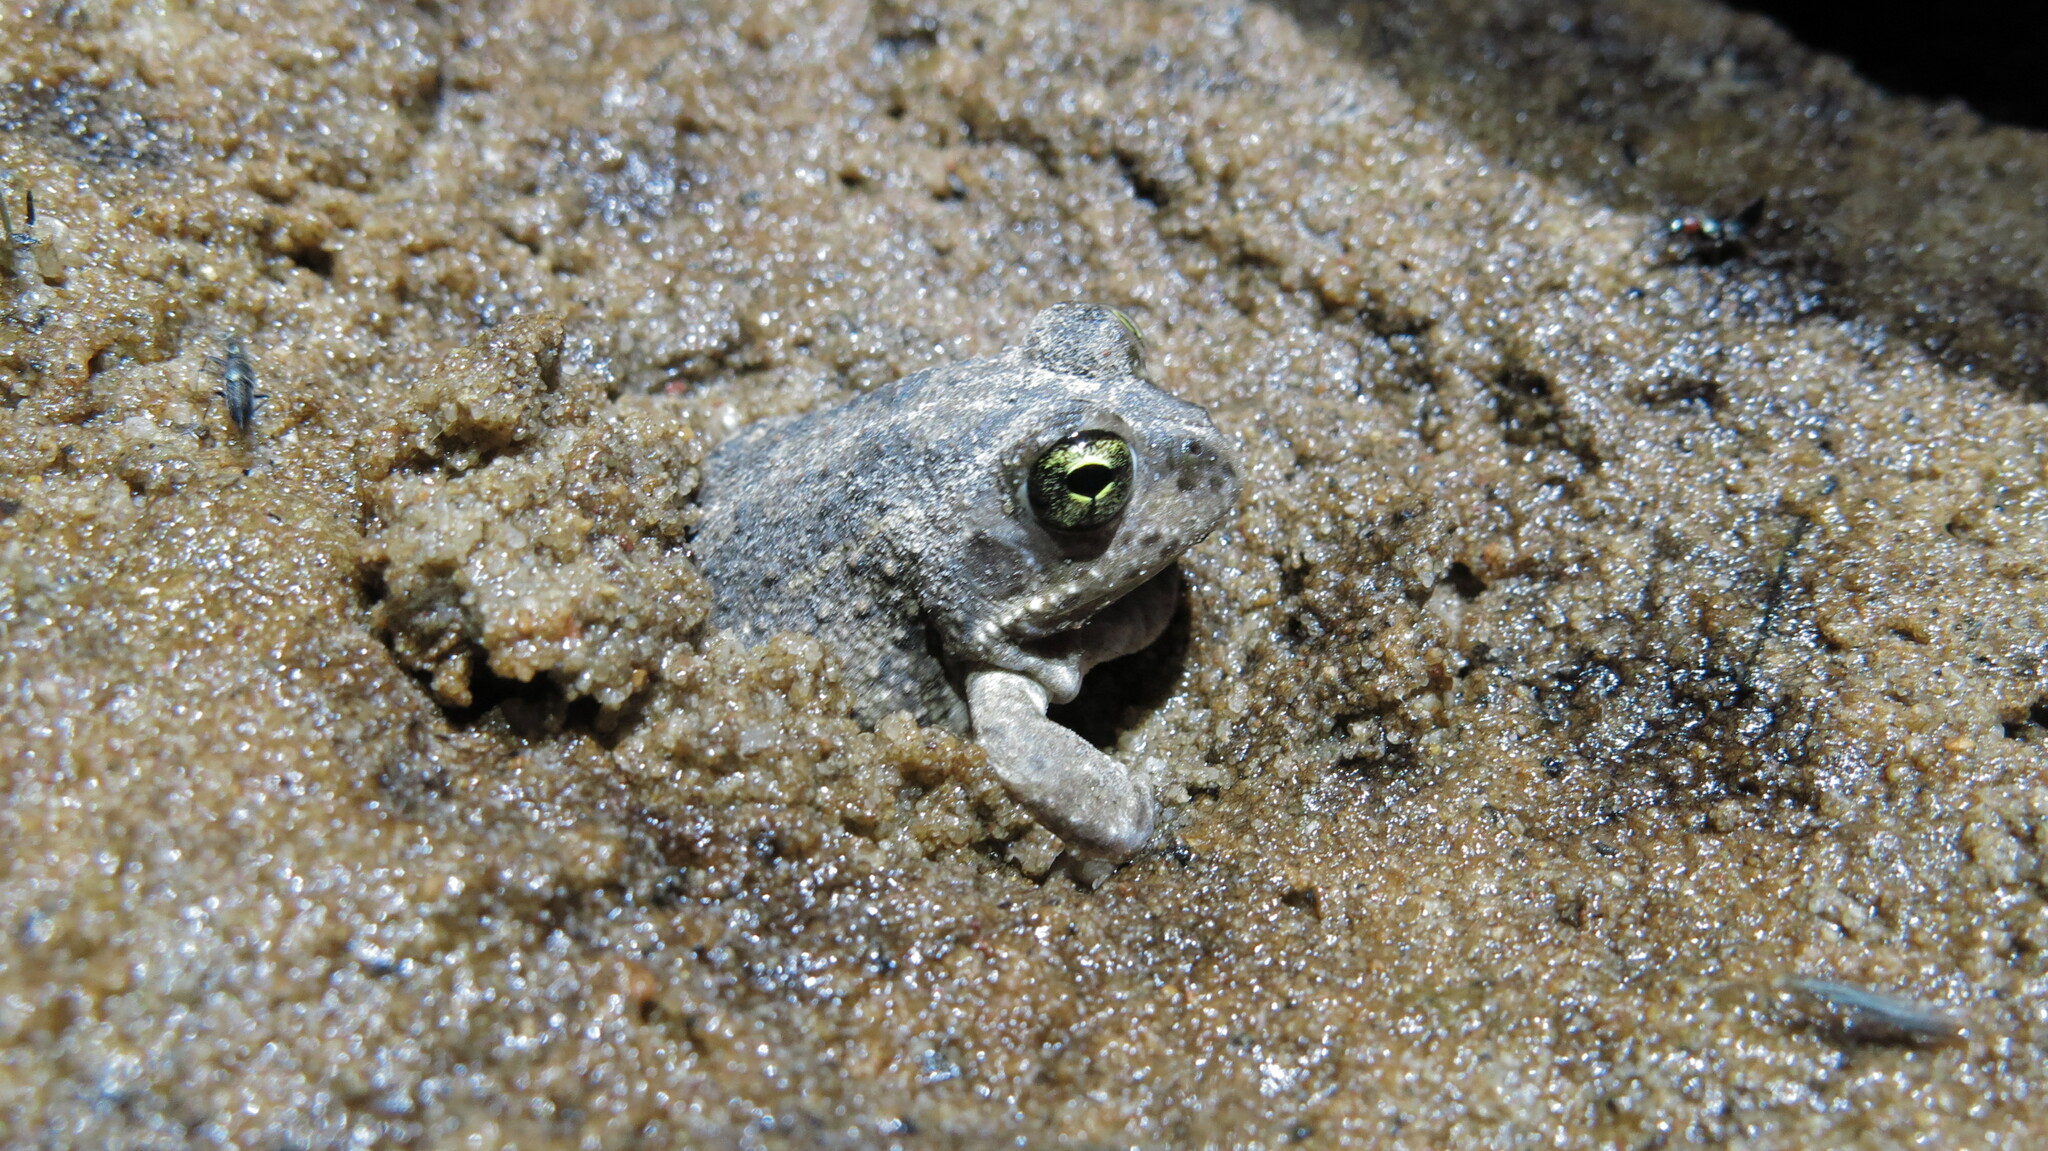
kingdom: Animalia
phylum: Chordata
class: Amphibia
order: Anura
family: Pyxicephalidae
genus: Tomopterna
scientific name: Tomopterna delalandii
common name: Delalande's burrowing bullfrog
